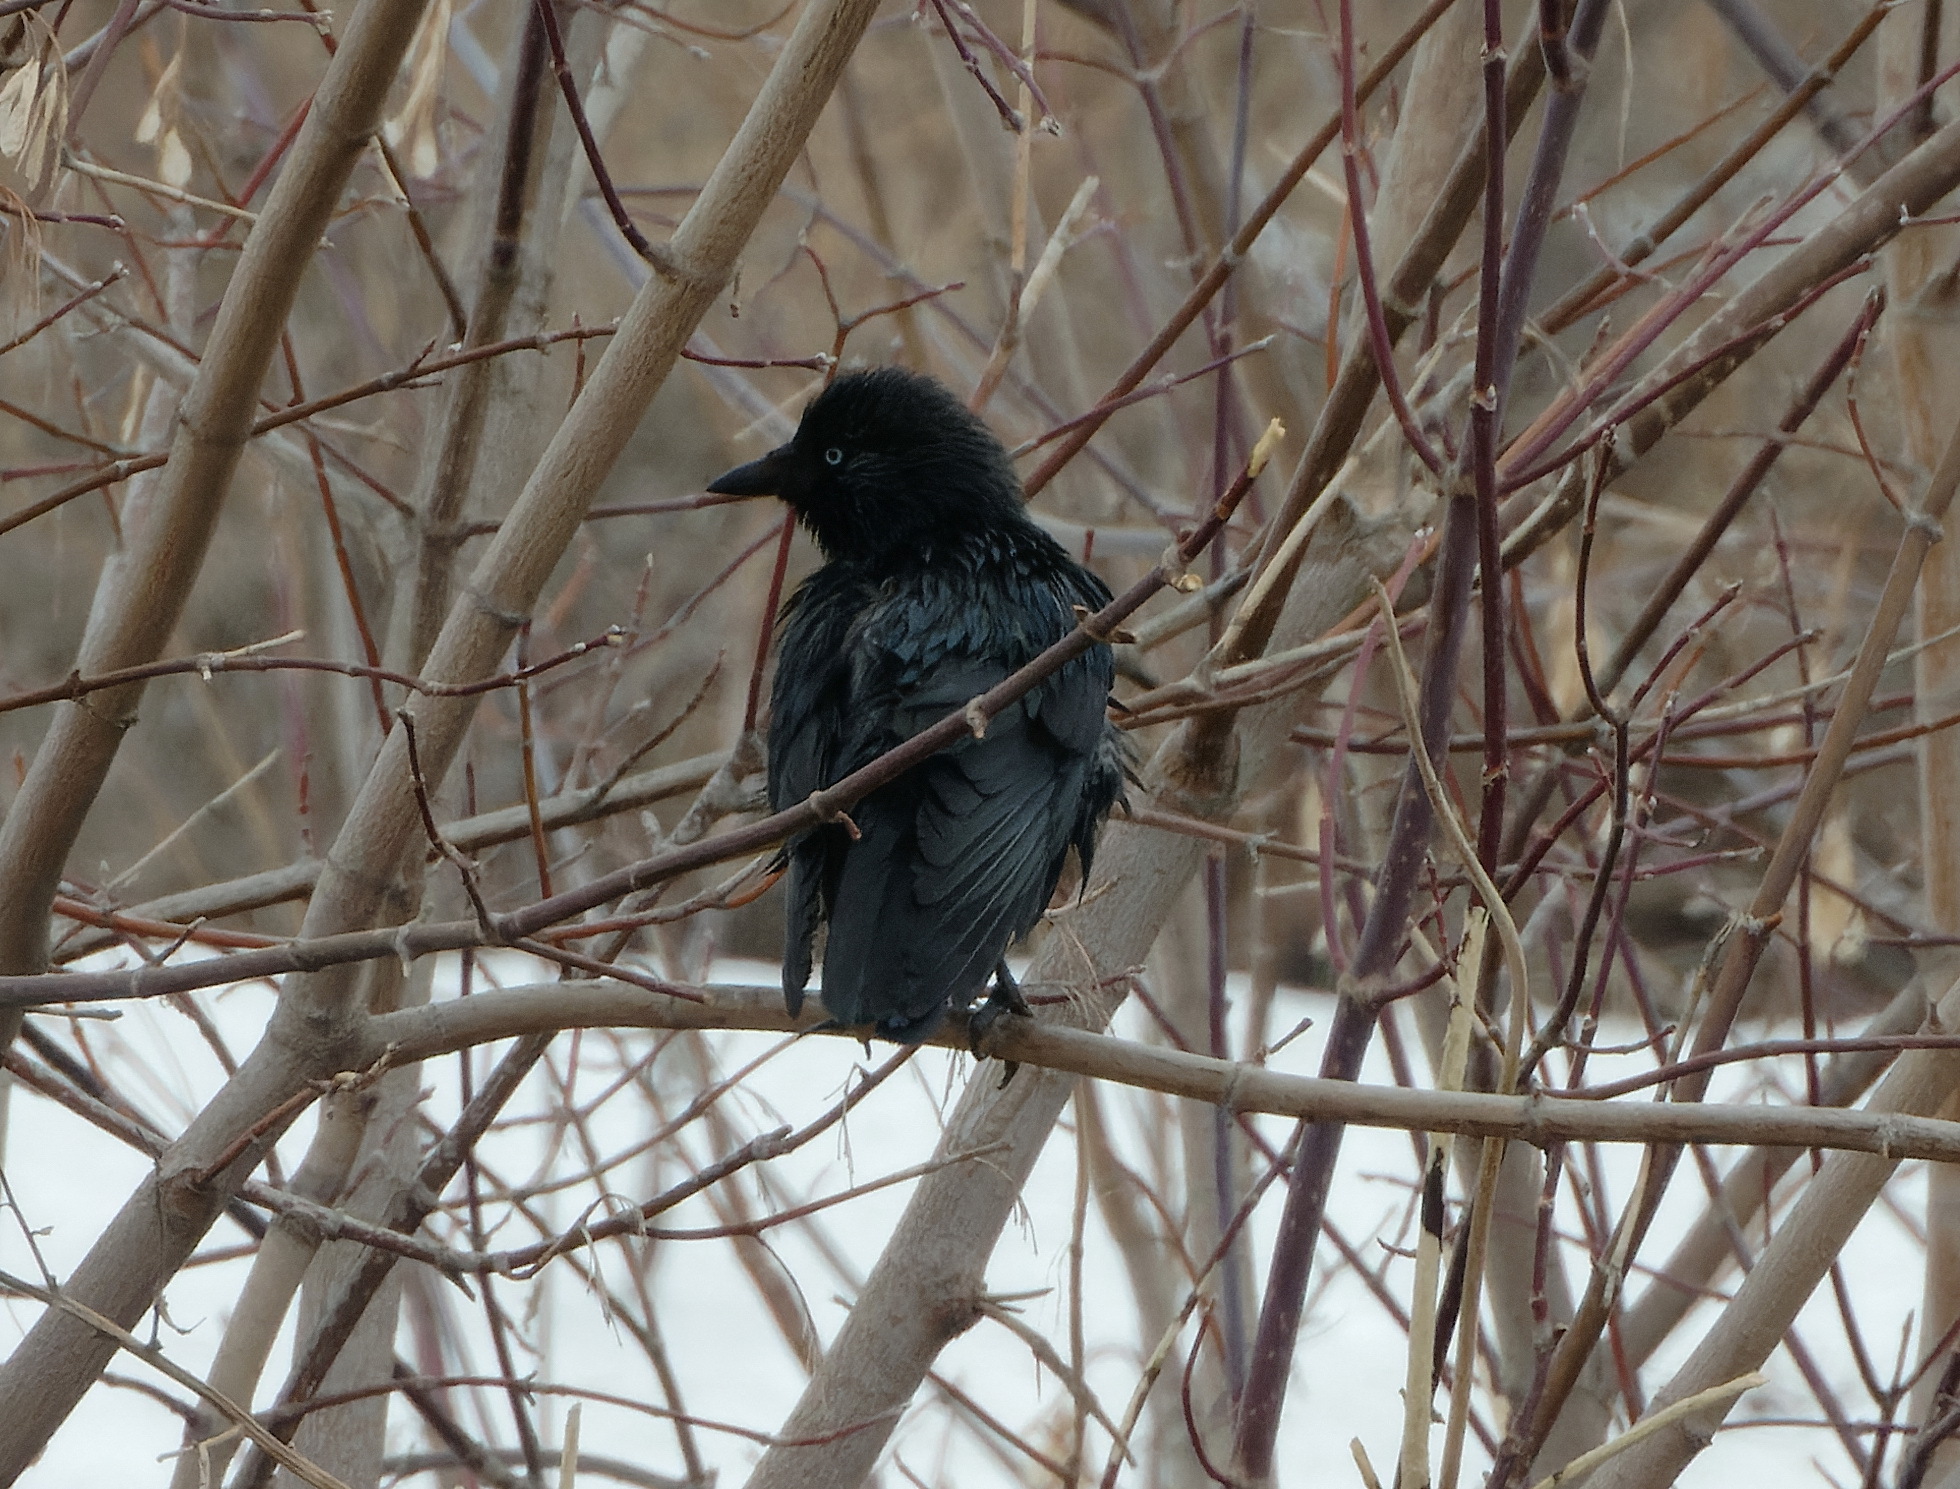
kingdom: Animalia
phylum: Chordata
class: Aves
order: Passeriformes
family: Corvidae
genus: Coloeus
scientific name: Coloeus monedula
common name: Western jackdaw
